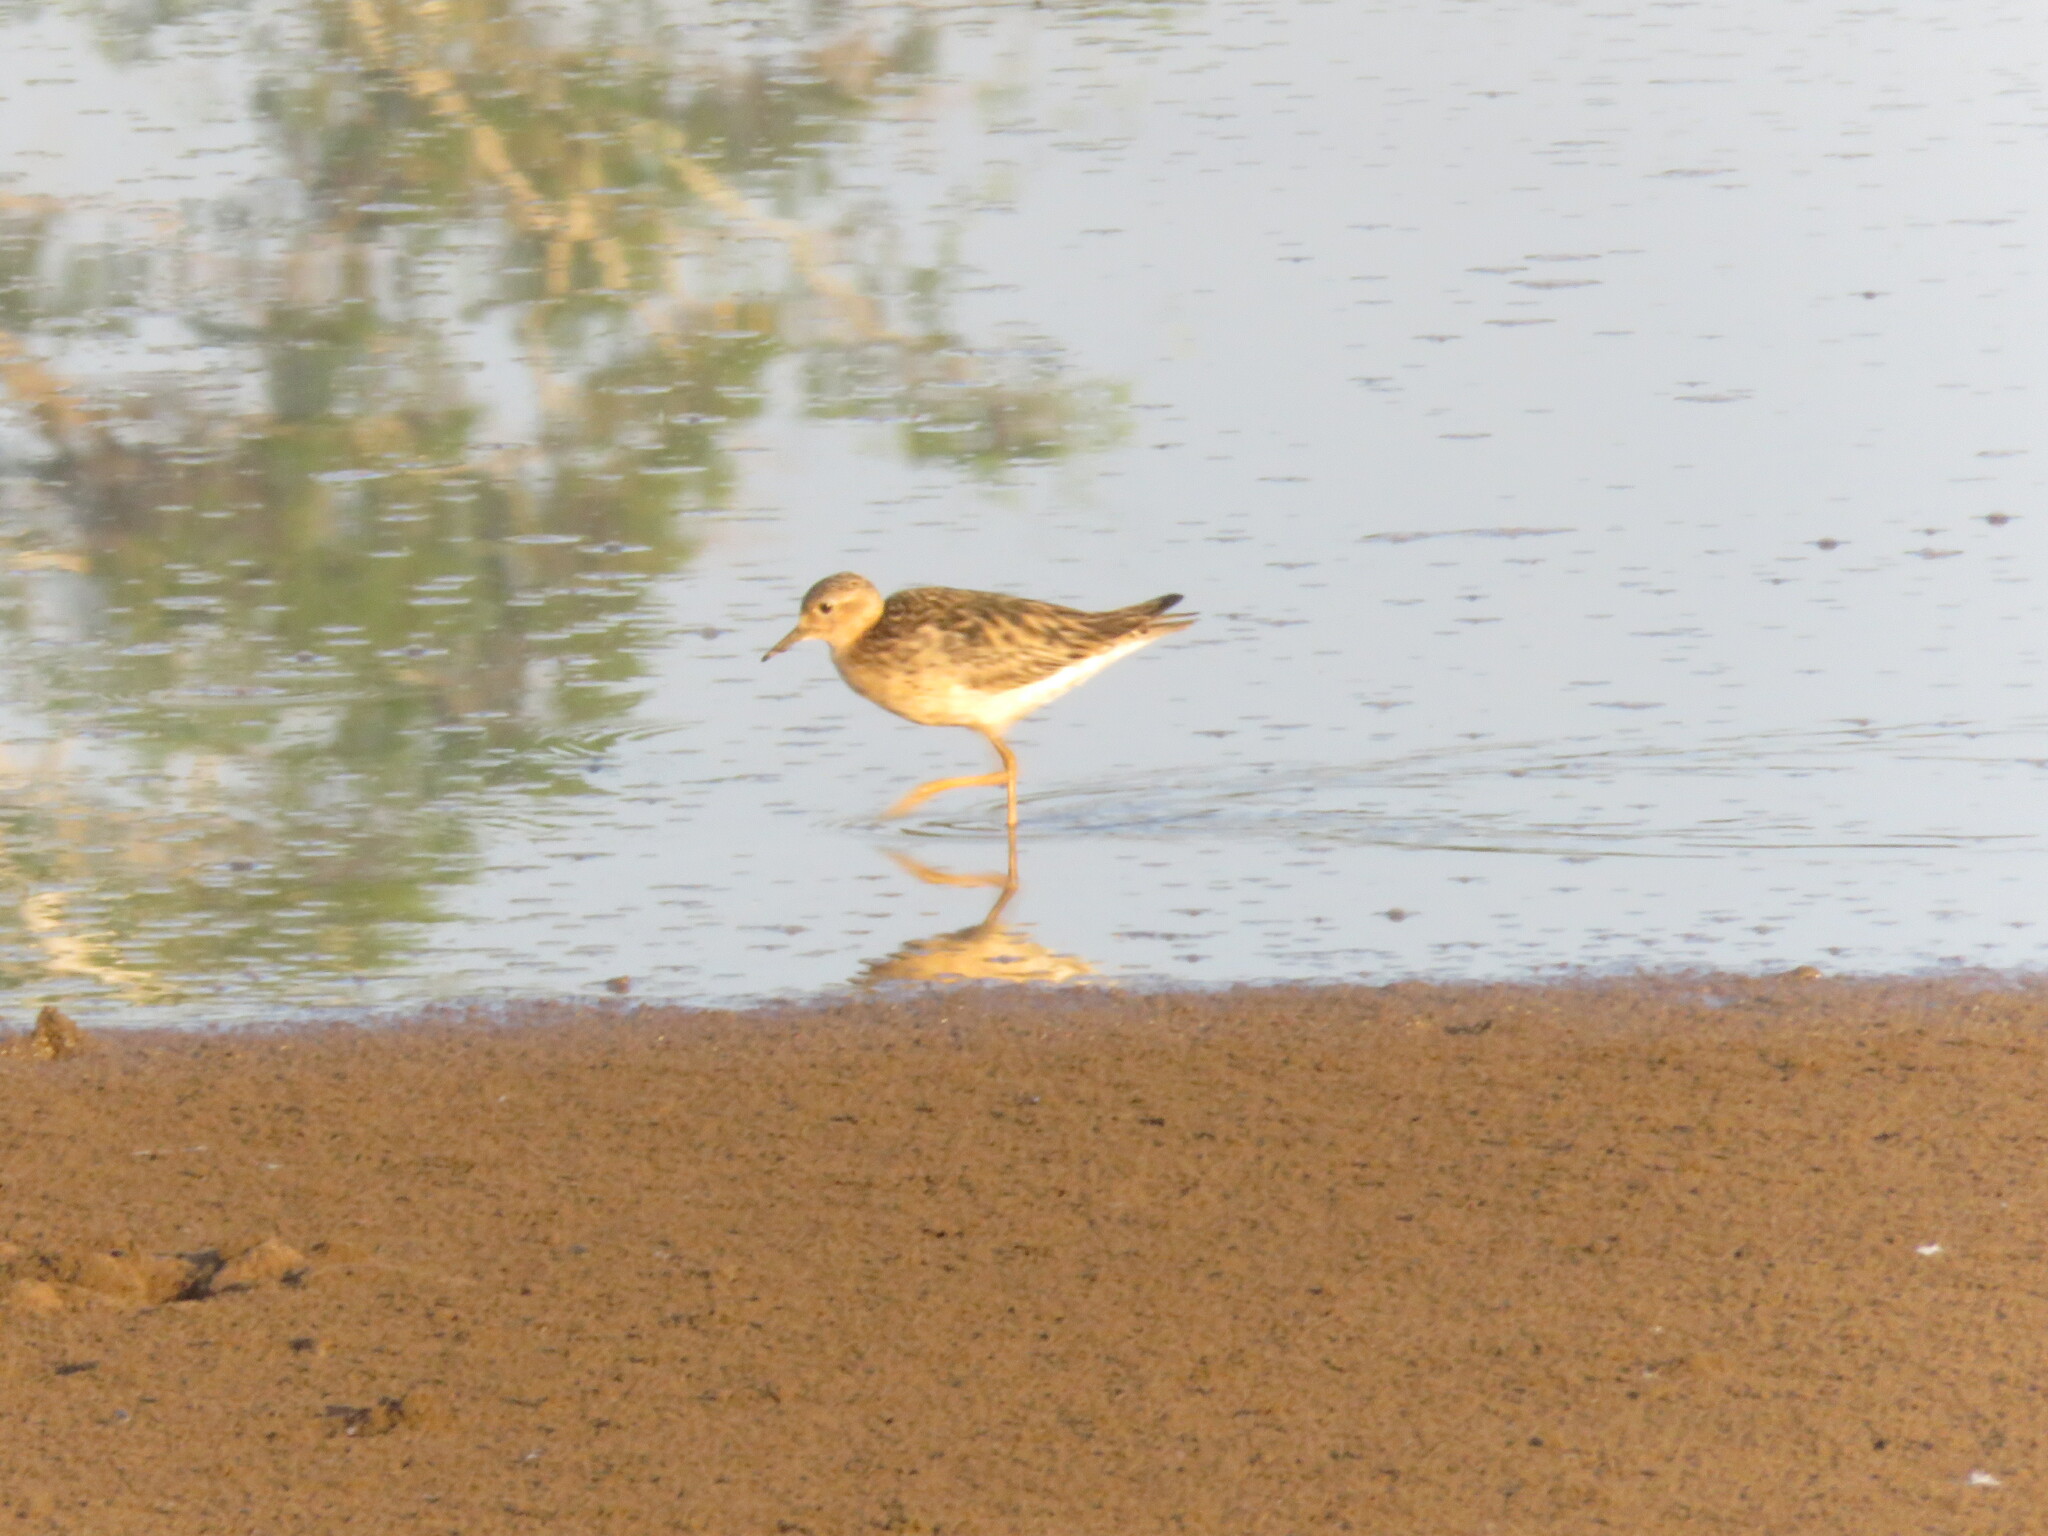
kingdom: Animalia
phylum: Chordata
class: Aves
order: Charadriiformes
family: Scolopacidae
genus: Calidris
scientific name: Calidris subruficollis
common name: Buff-breasted sandpiper
